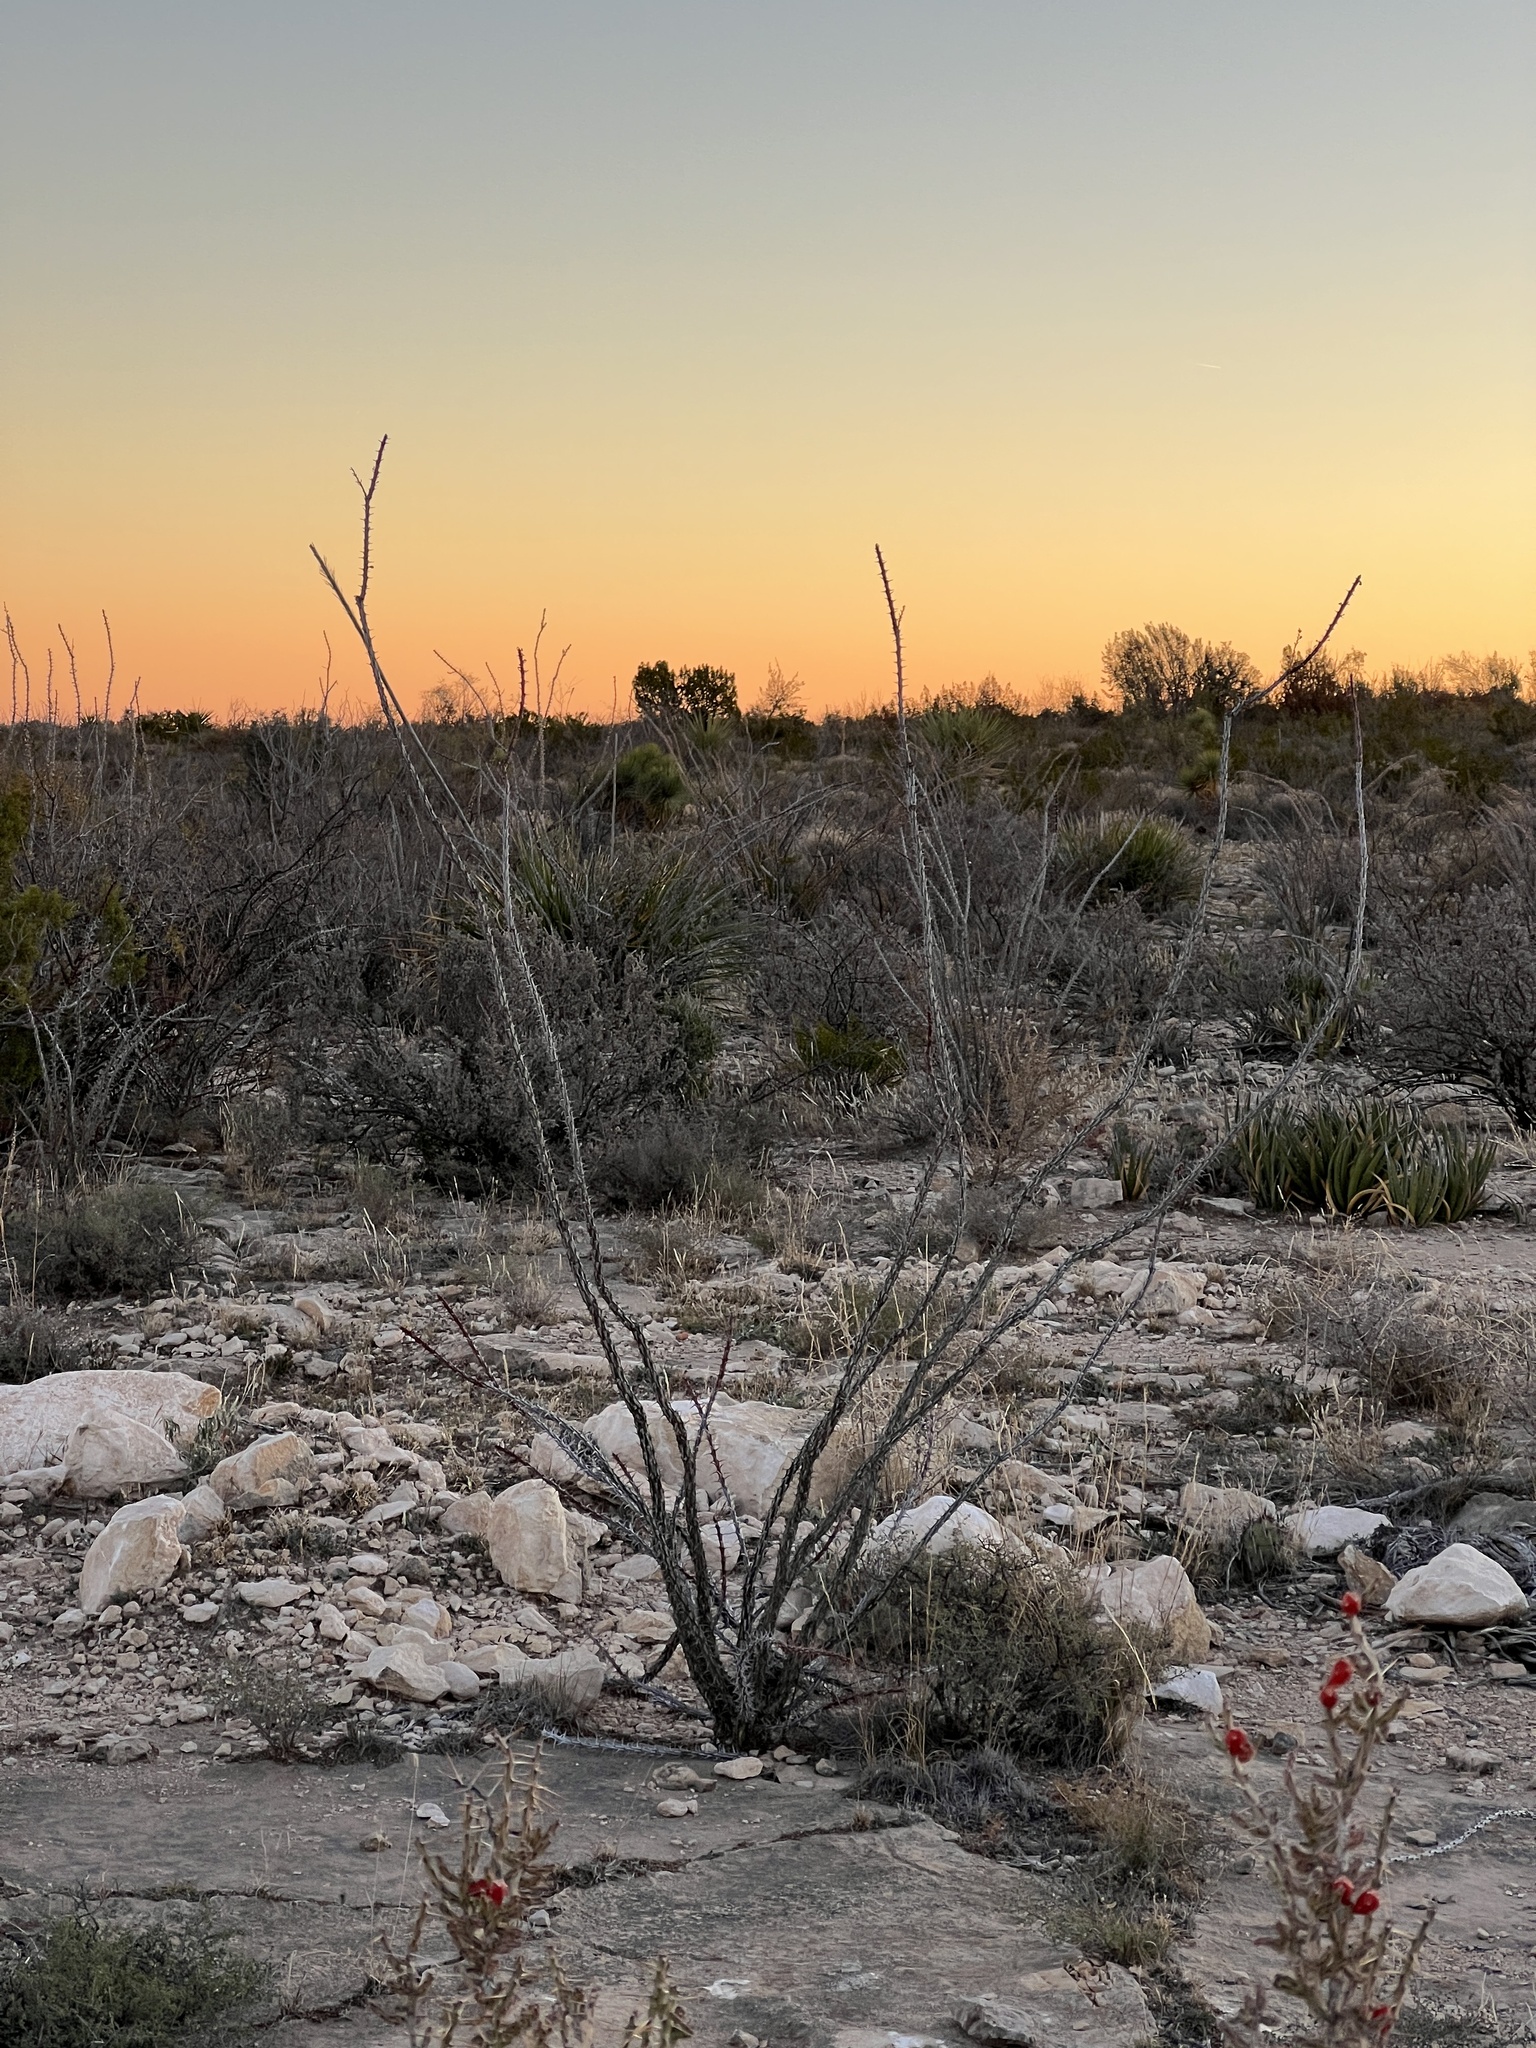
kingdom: Plantae
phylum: Tracheophyta
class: Magnoliopsida
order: Ericales
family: Fouquieriaceae
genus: Fouquieria
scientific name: Fouquieria splendens
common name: Vine-cactus
